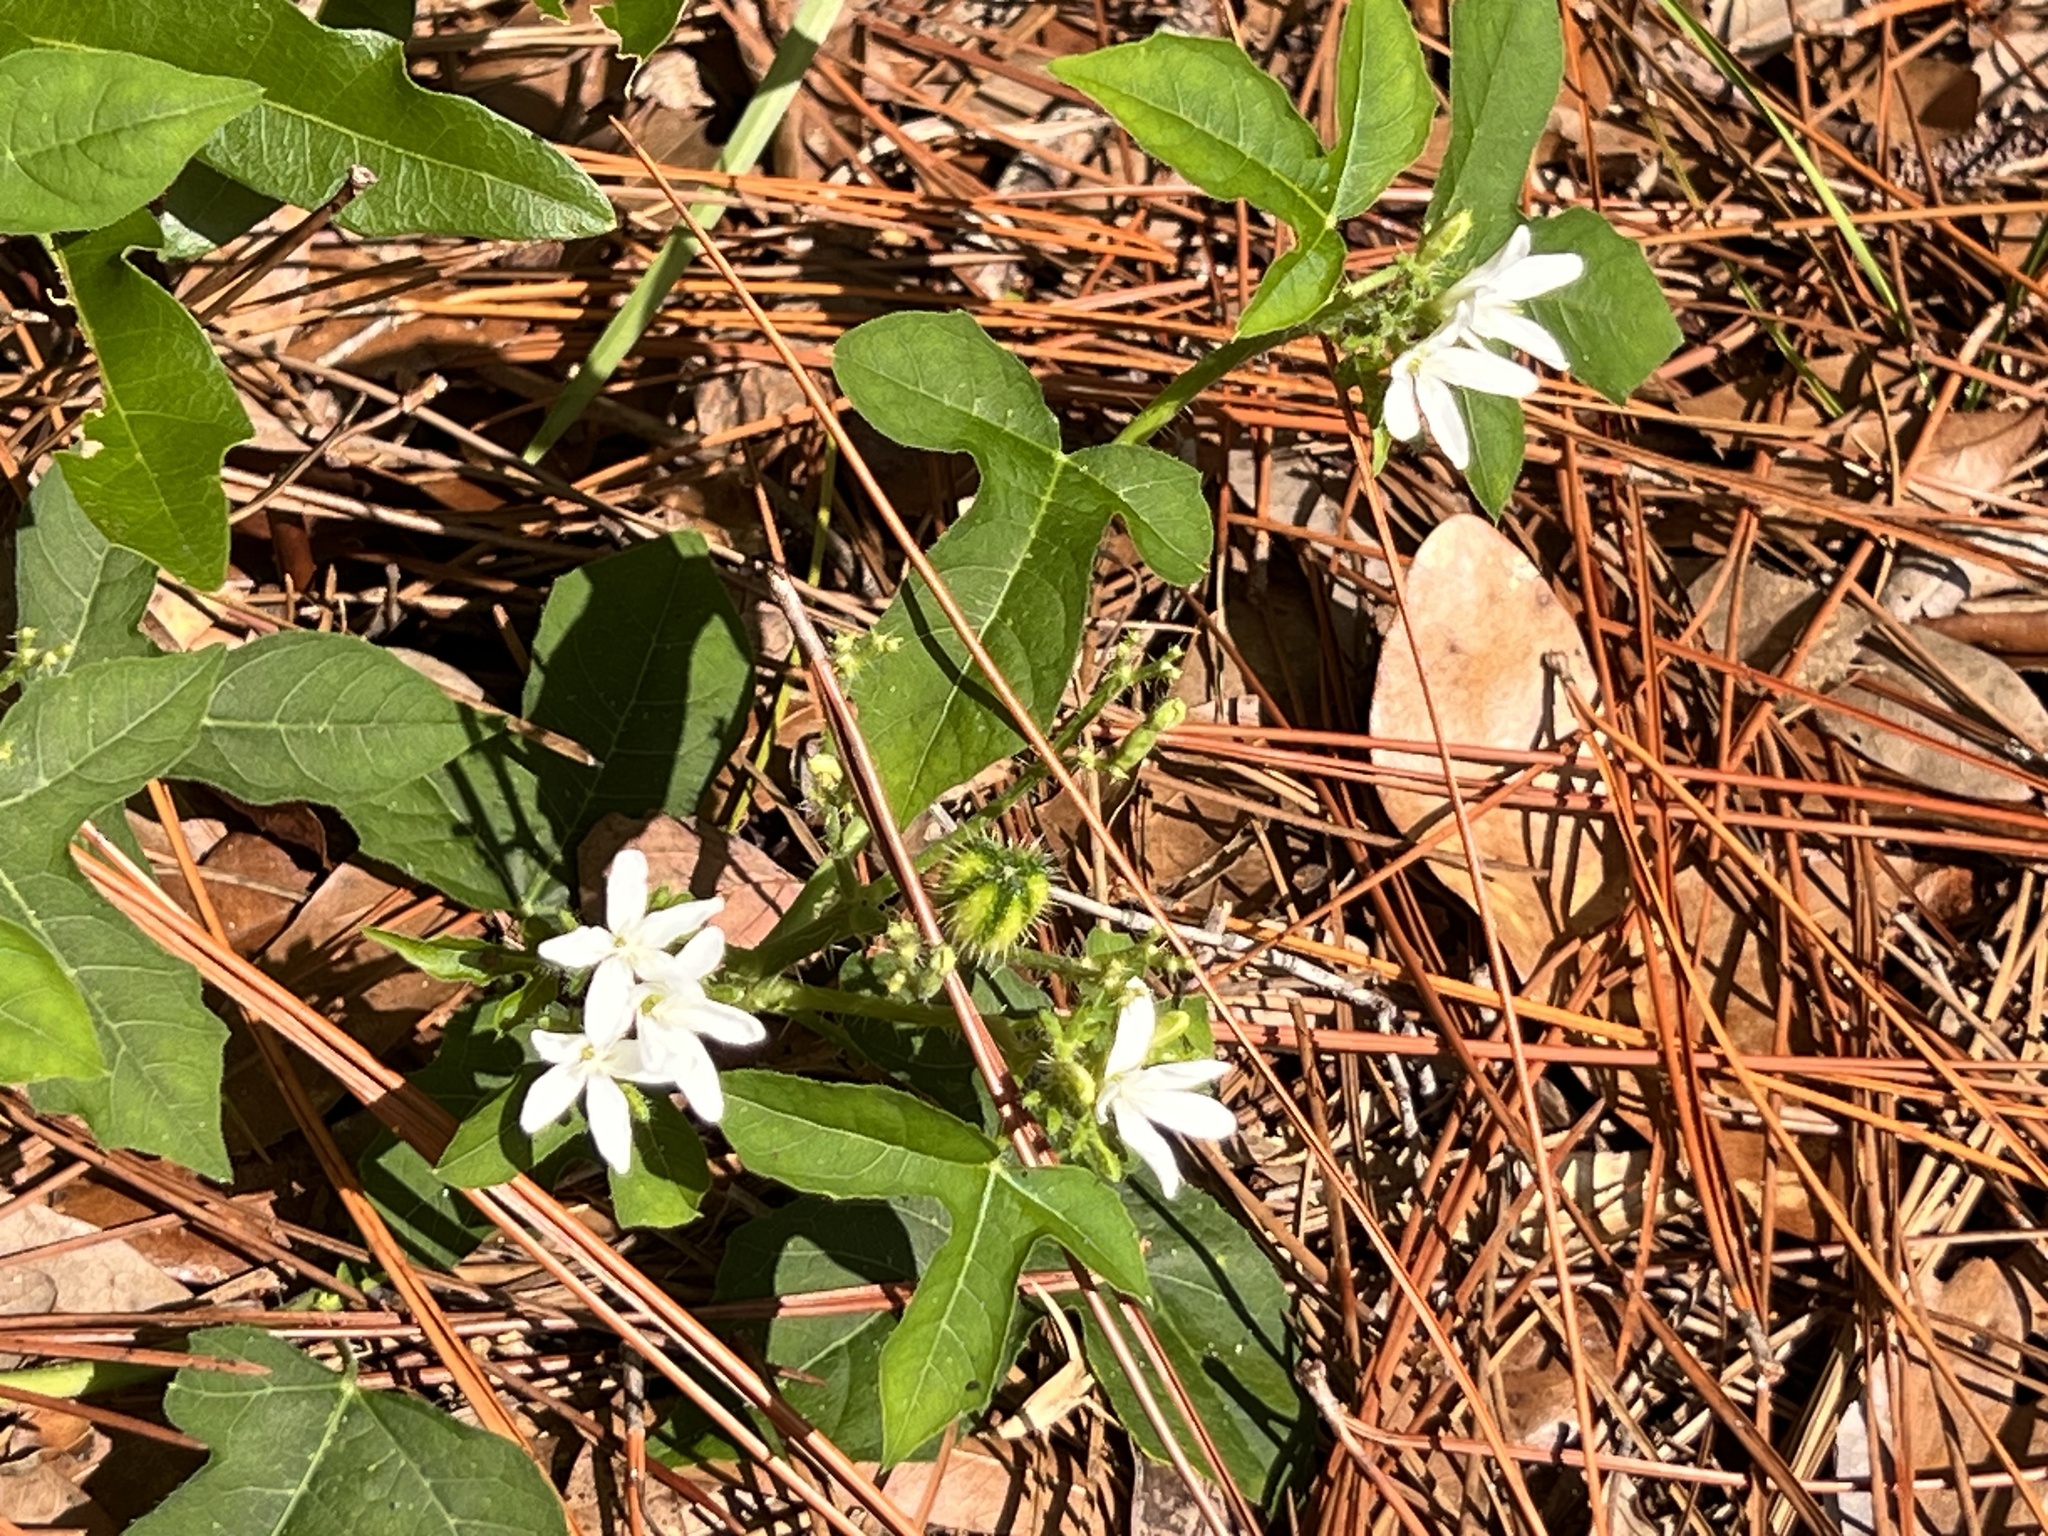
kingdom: Plantae
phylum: Tracheophyta
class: Magnoliopsida
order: Malpighiales
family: Euphorbiaceae
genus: Cnidoscolus
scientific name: Cnidoscolus stimulosus
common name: Bull-nettle
